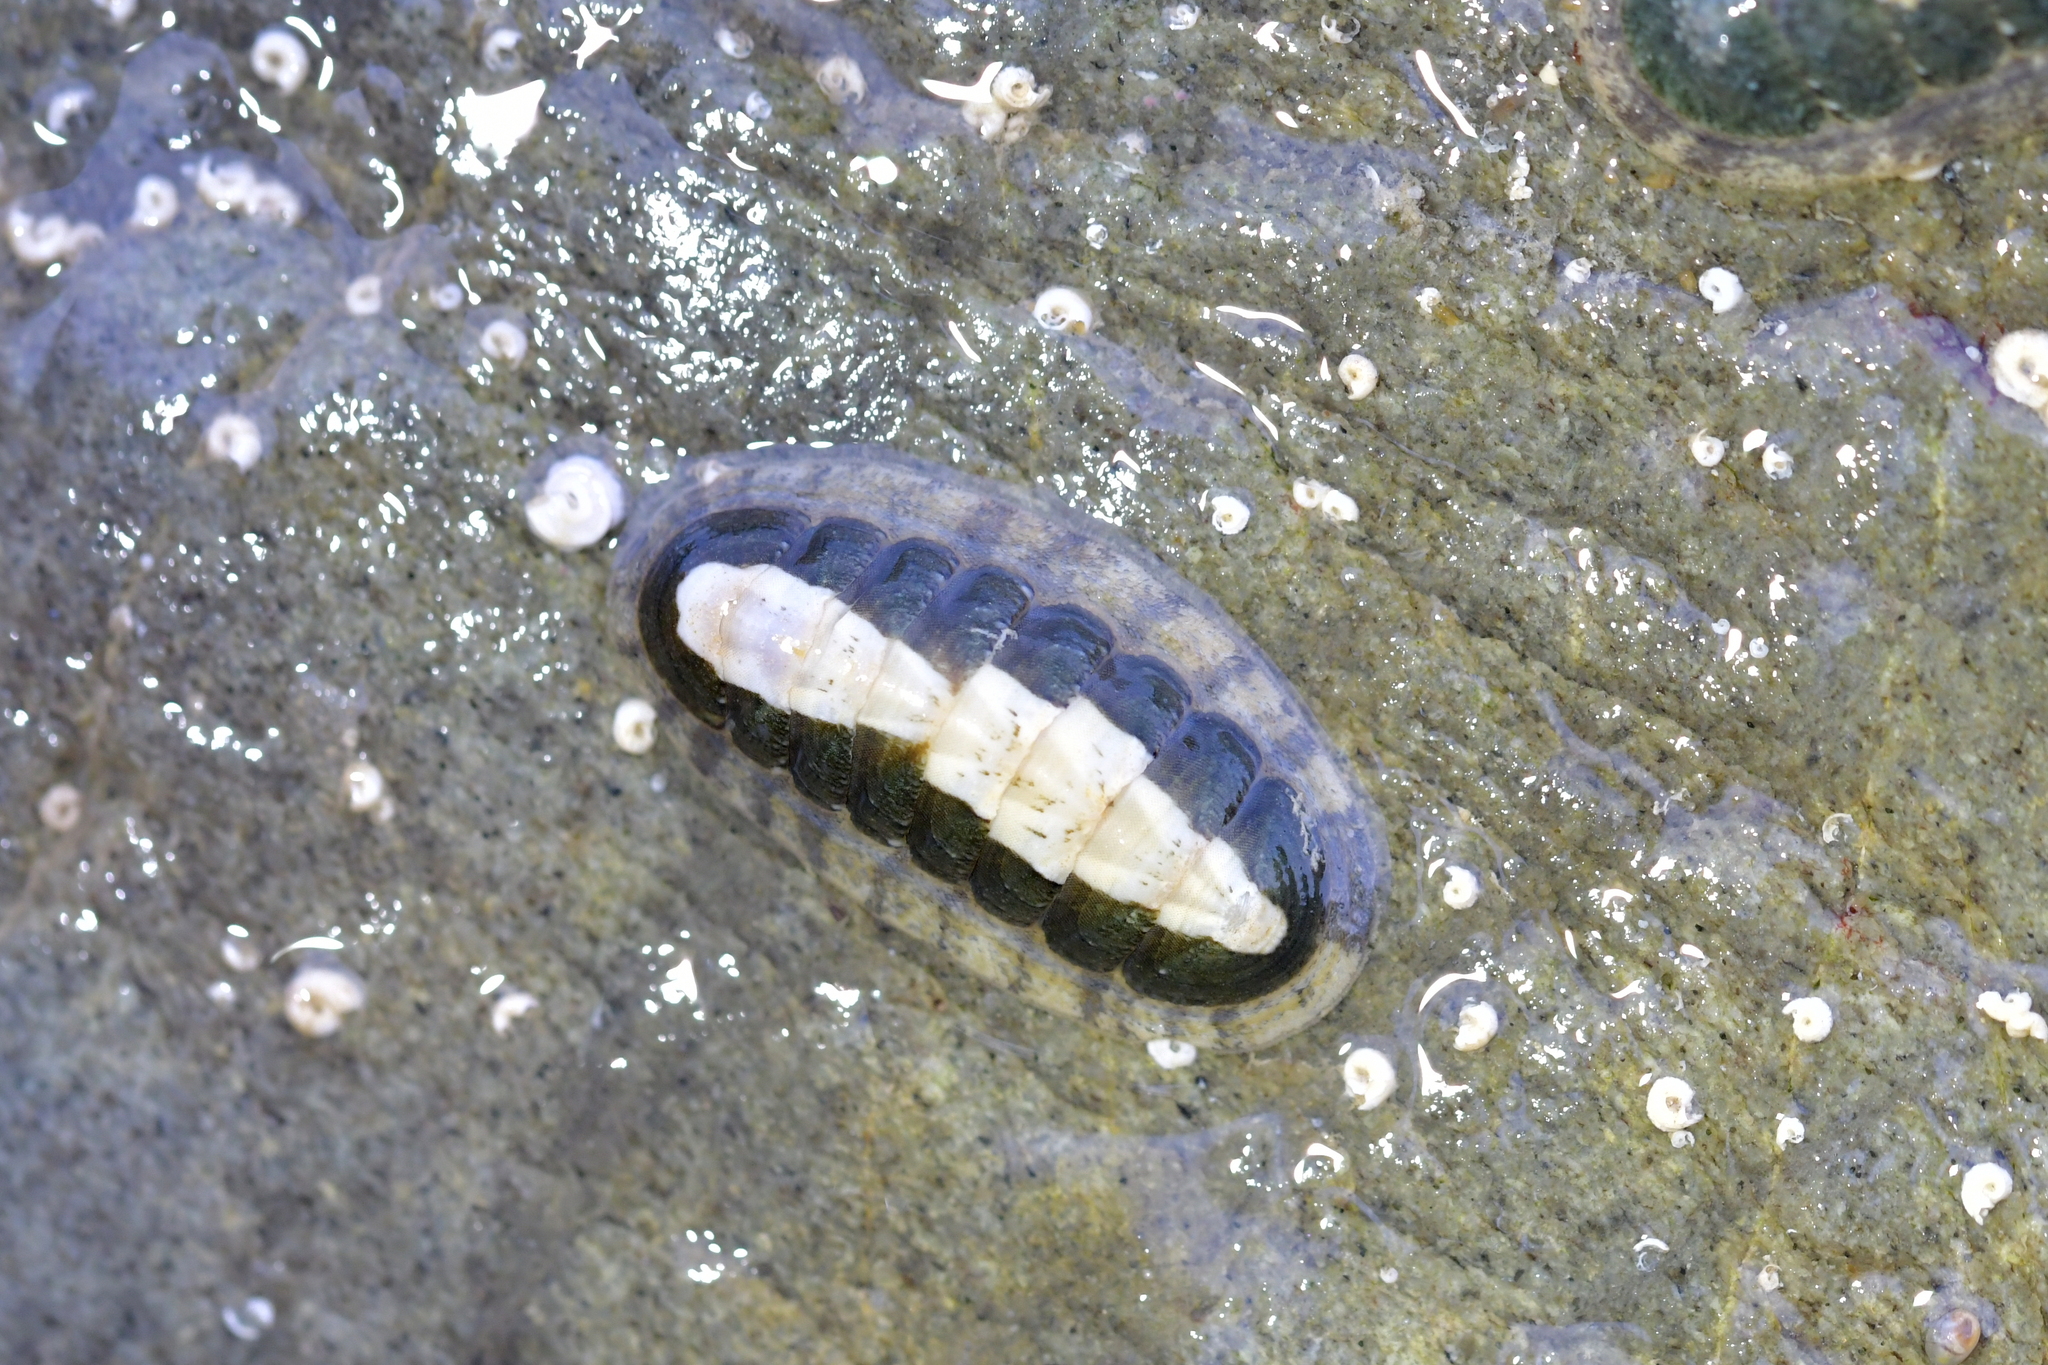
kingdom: Animalia
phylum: Mollusca
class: Polyplacophora
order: Chitonida
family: Ischnochitonidae
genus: Ischnochiton
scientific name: Ischnochiton maorianus
